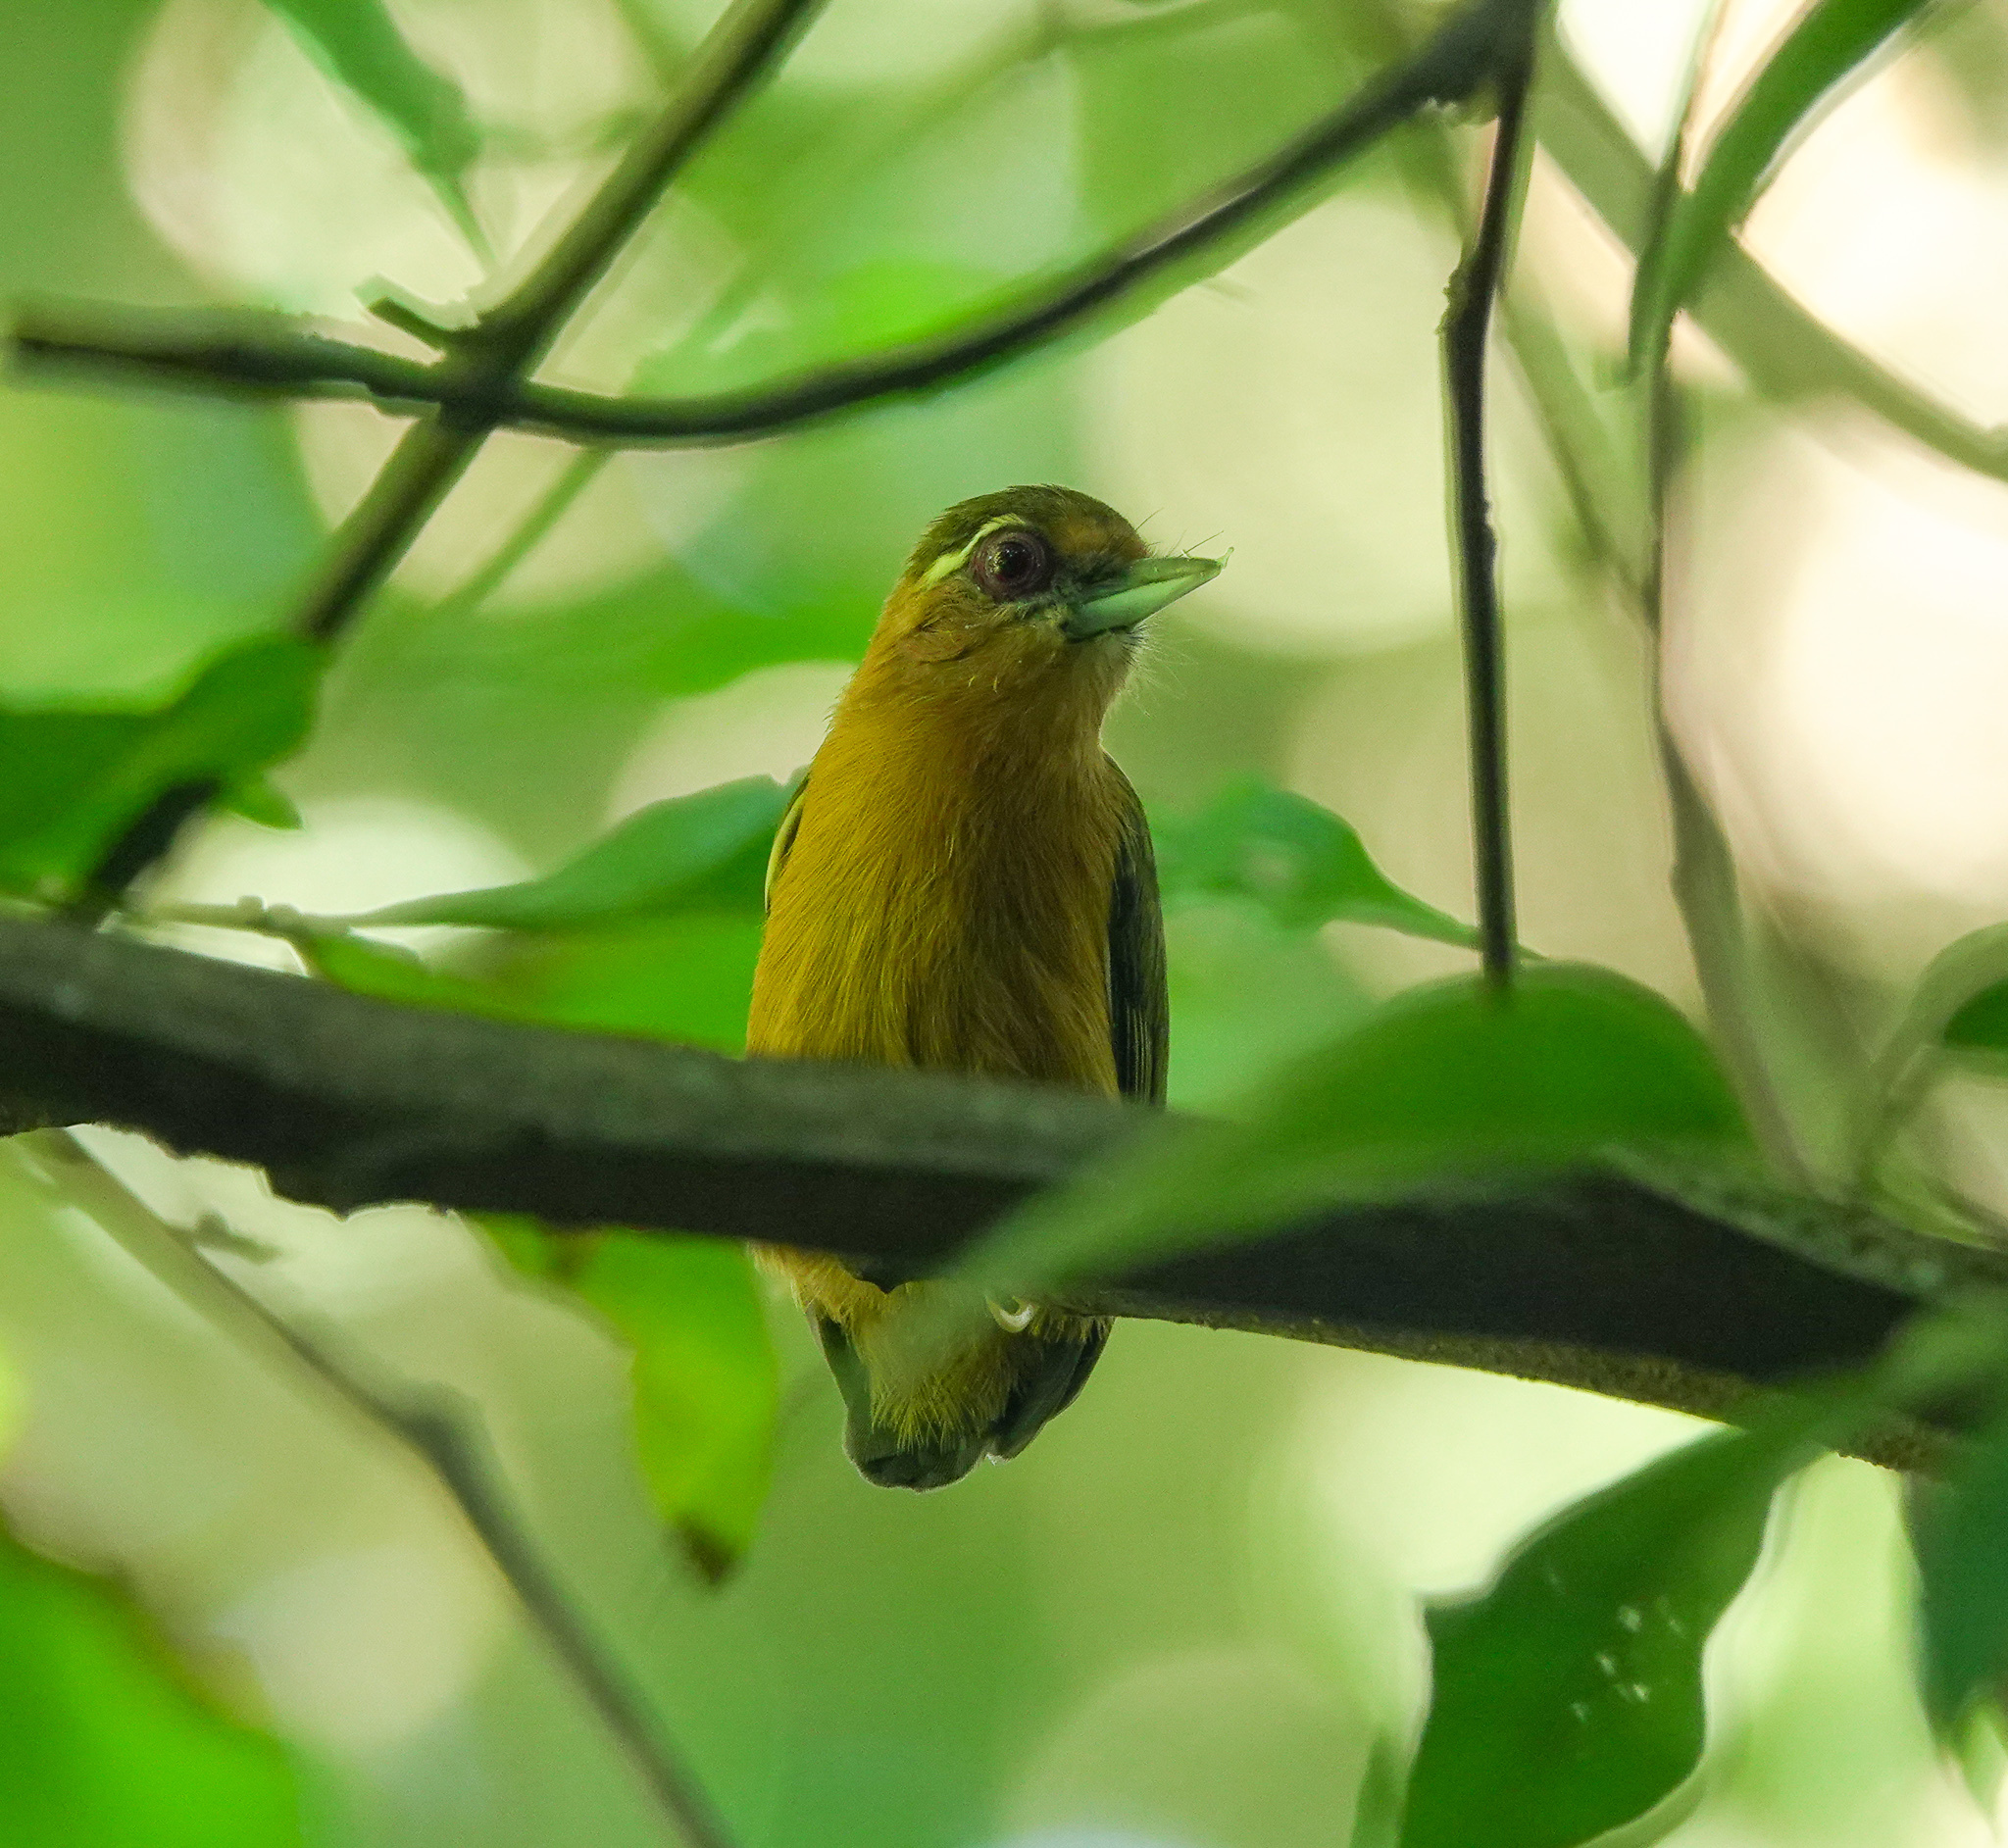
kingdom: Animalia
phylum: Chordata
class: Aves
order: Piciformes
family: Picidae
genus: Sasia
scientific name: Sasia ochracea
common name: White-browed piculet
